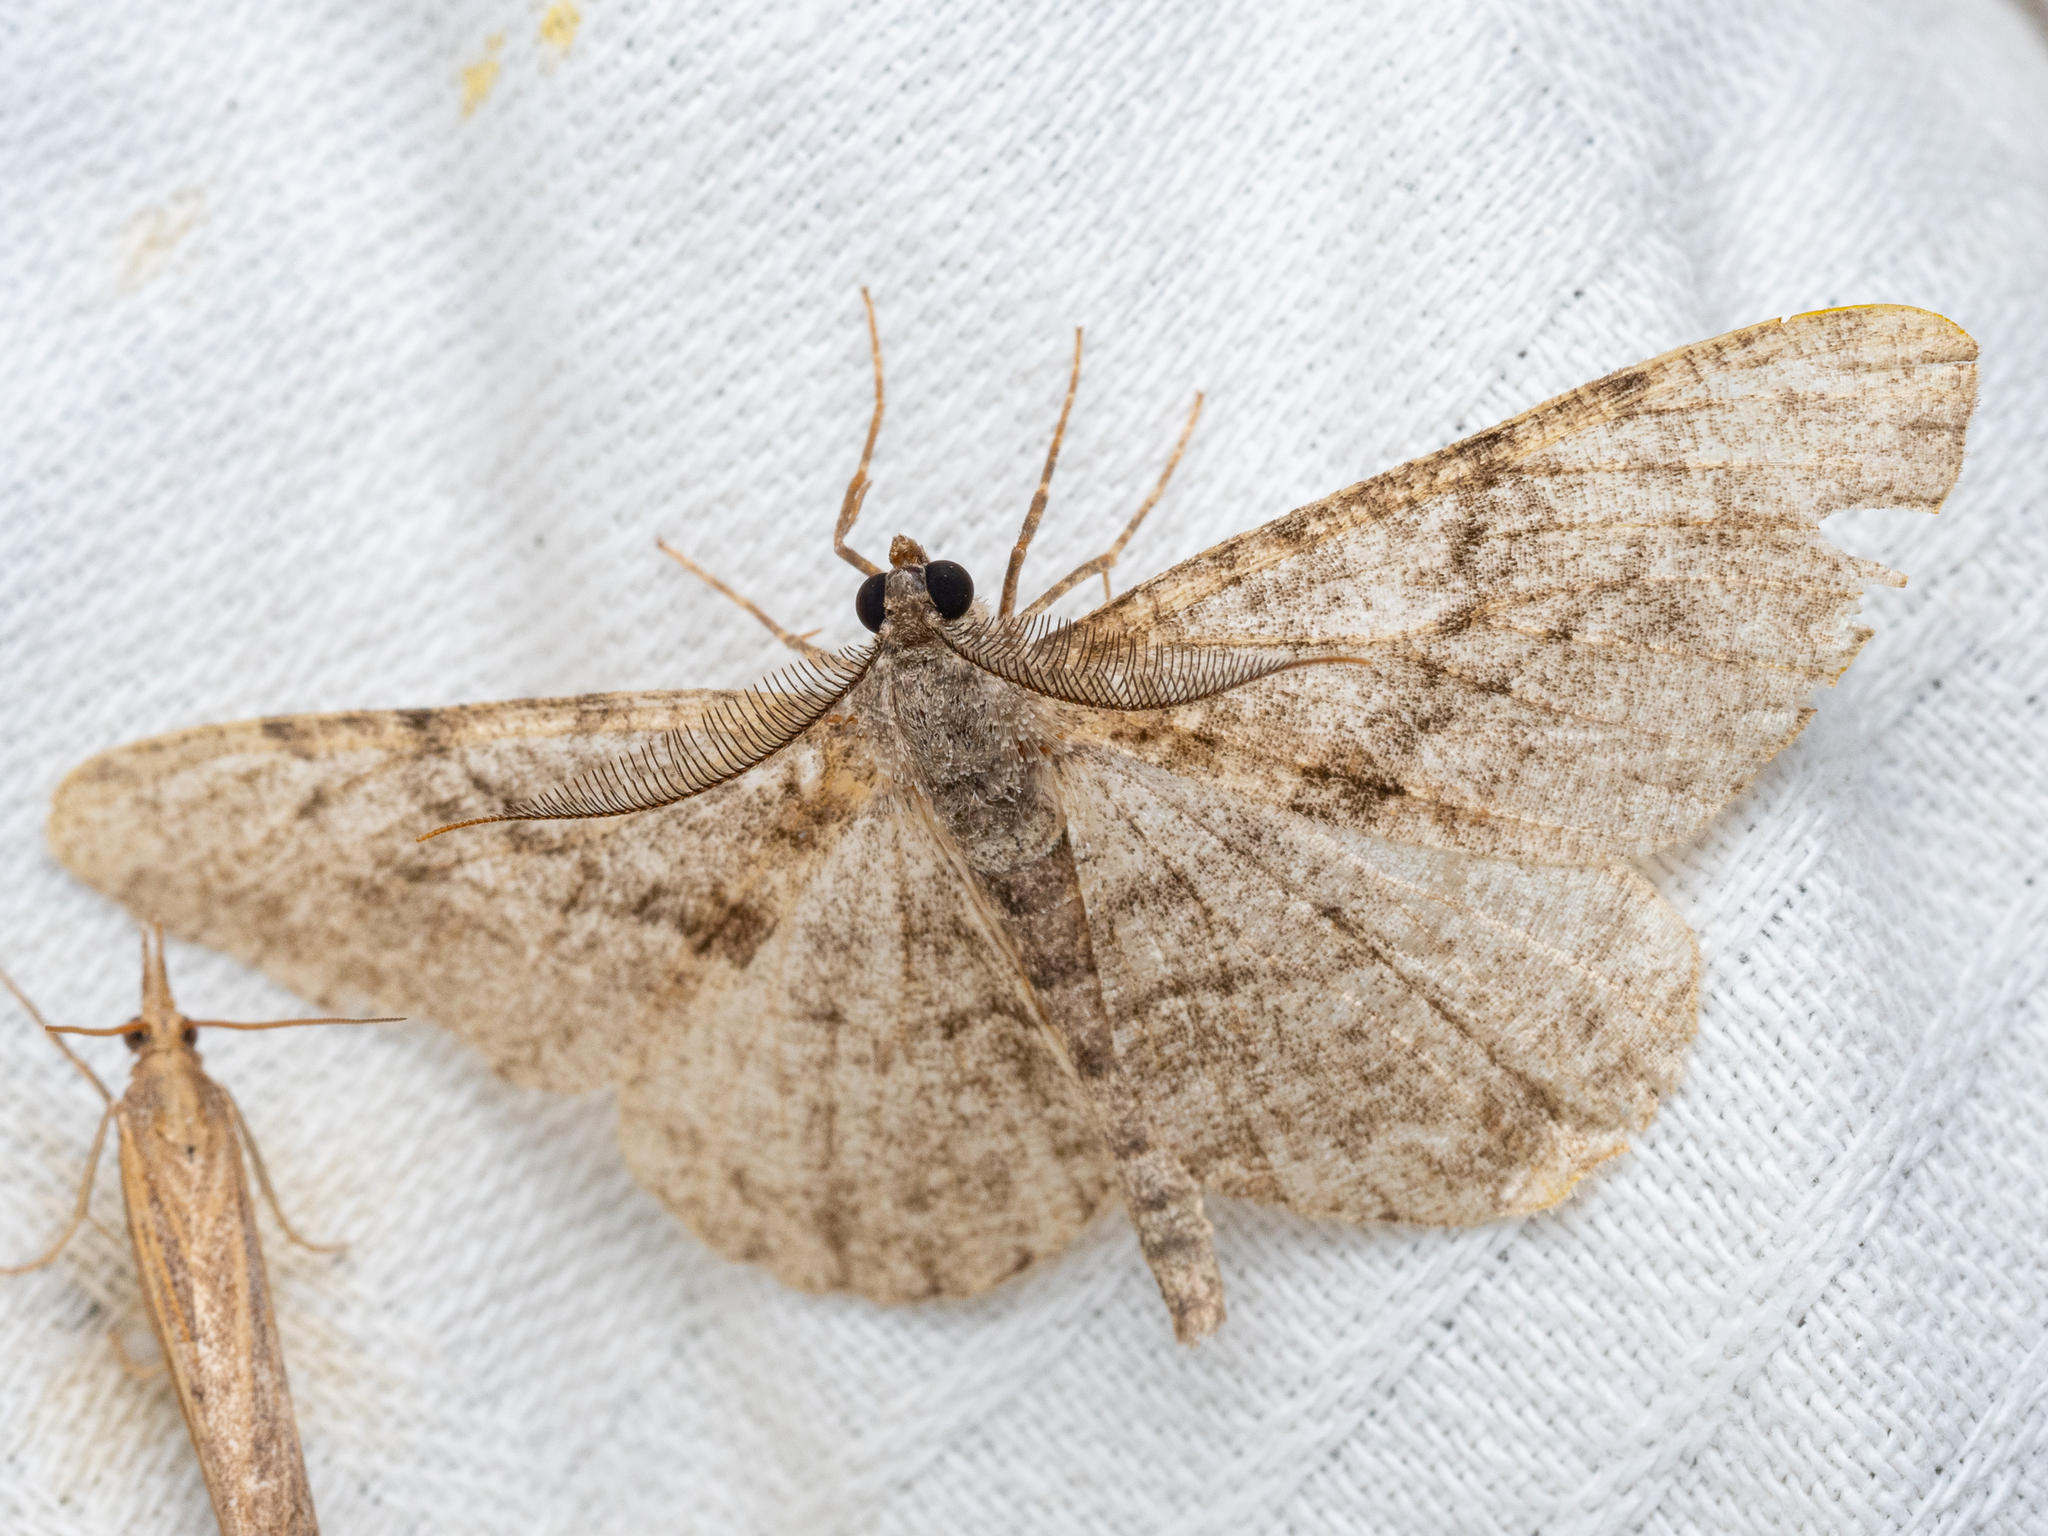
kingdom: Animalia
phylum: Arthropoda
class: Insecta
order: Lepidoptera
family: Geometridae
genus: Peribatodes
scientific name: Peribatodes rhomboidaria
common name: Willow beauty
